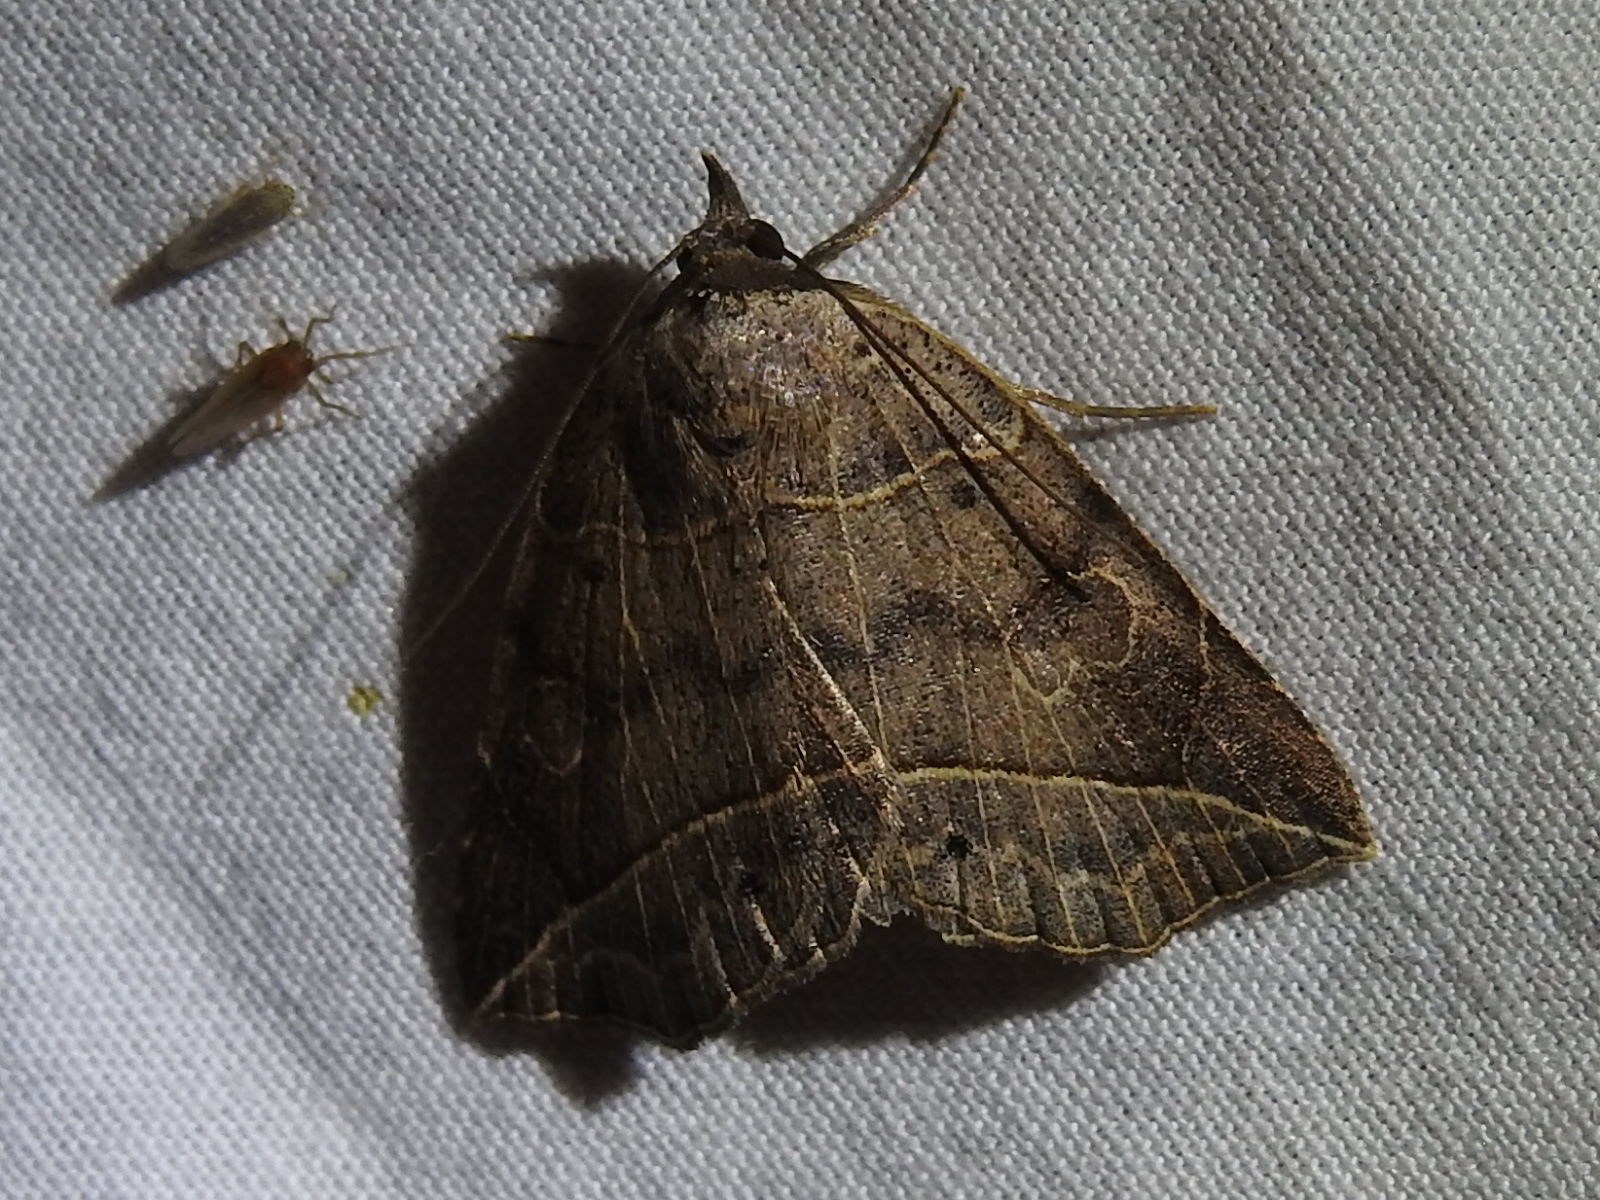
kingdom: Animalia
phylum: Arthropoda
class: Insecta
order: Lepidoptera
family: Erebidae
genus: Isogona
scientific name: Isogona tenuis
